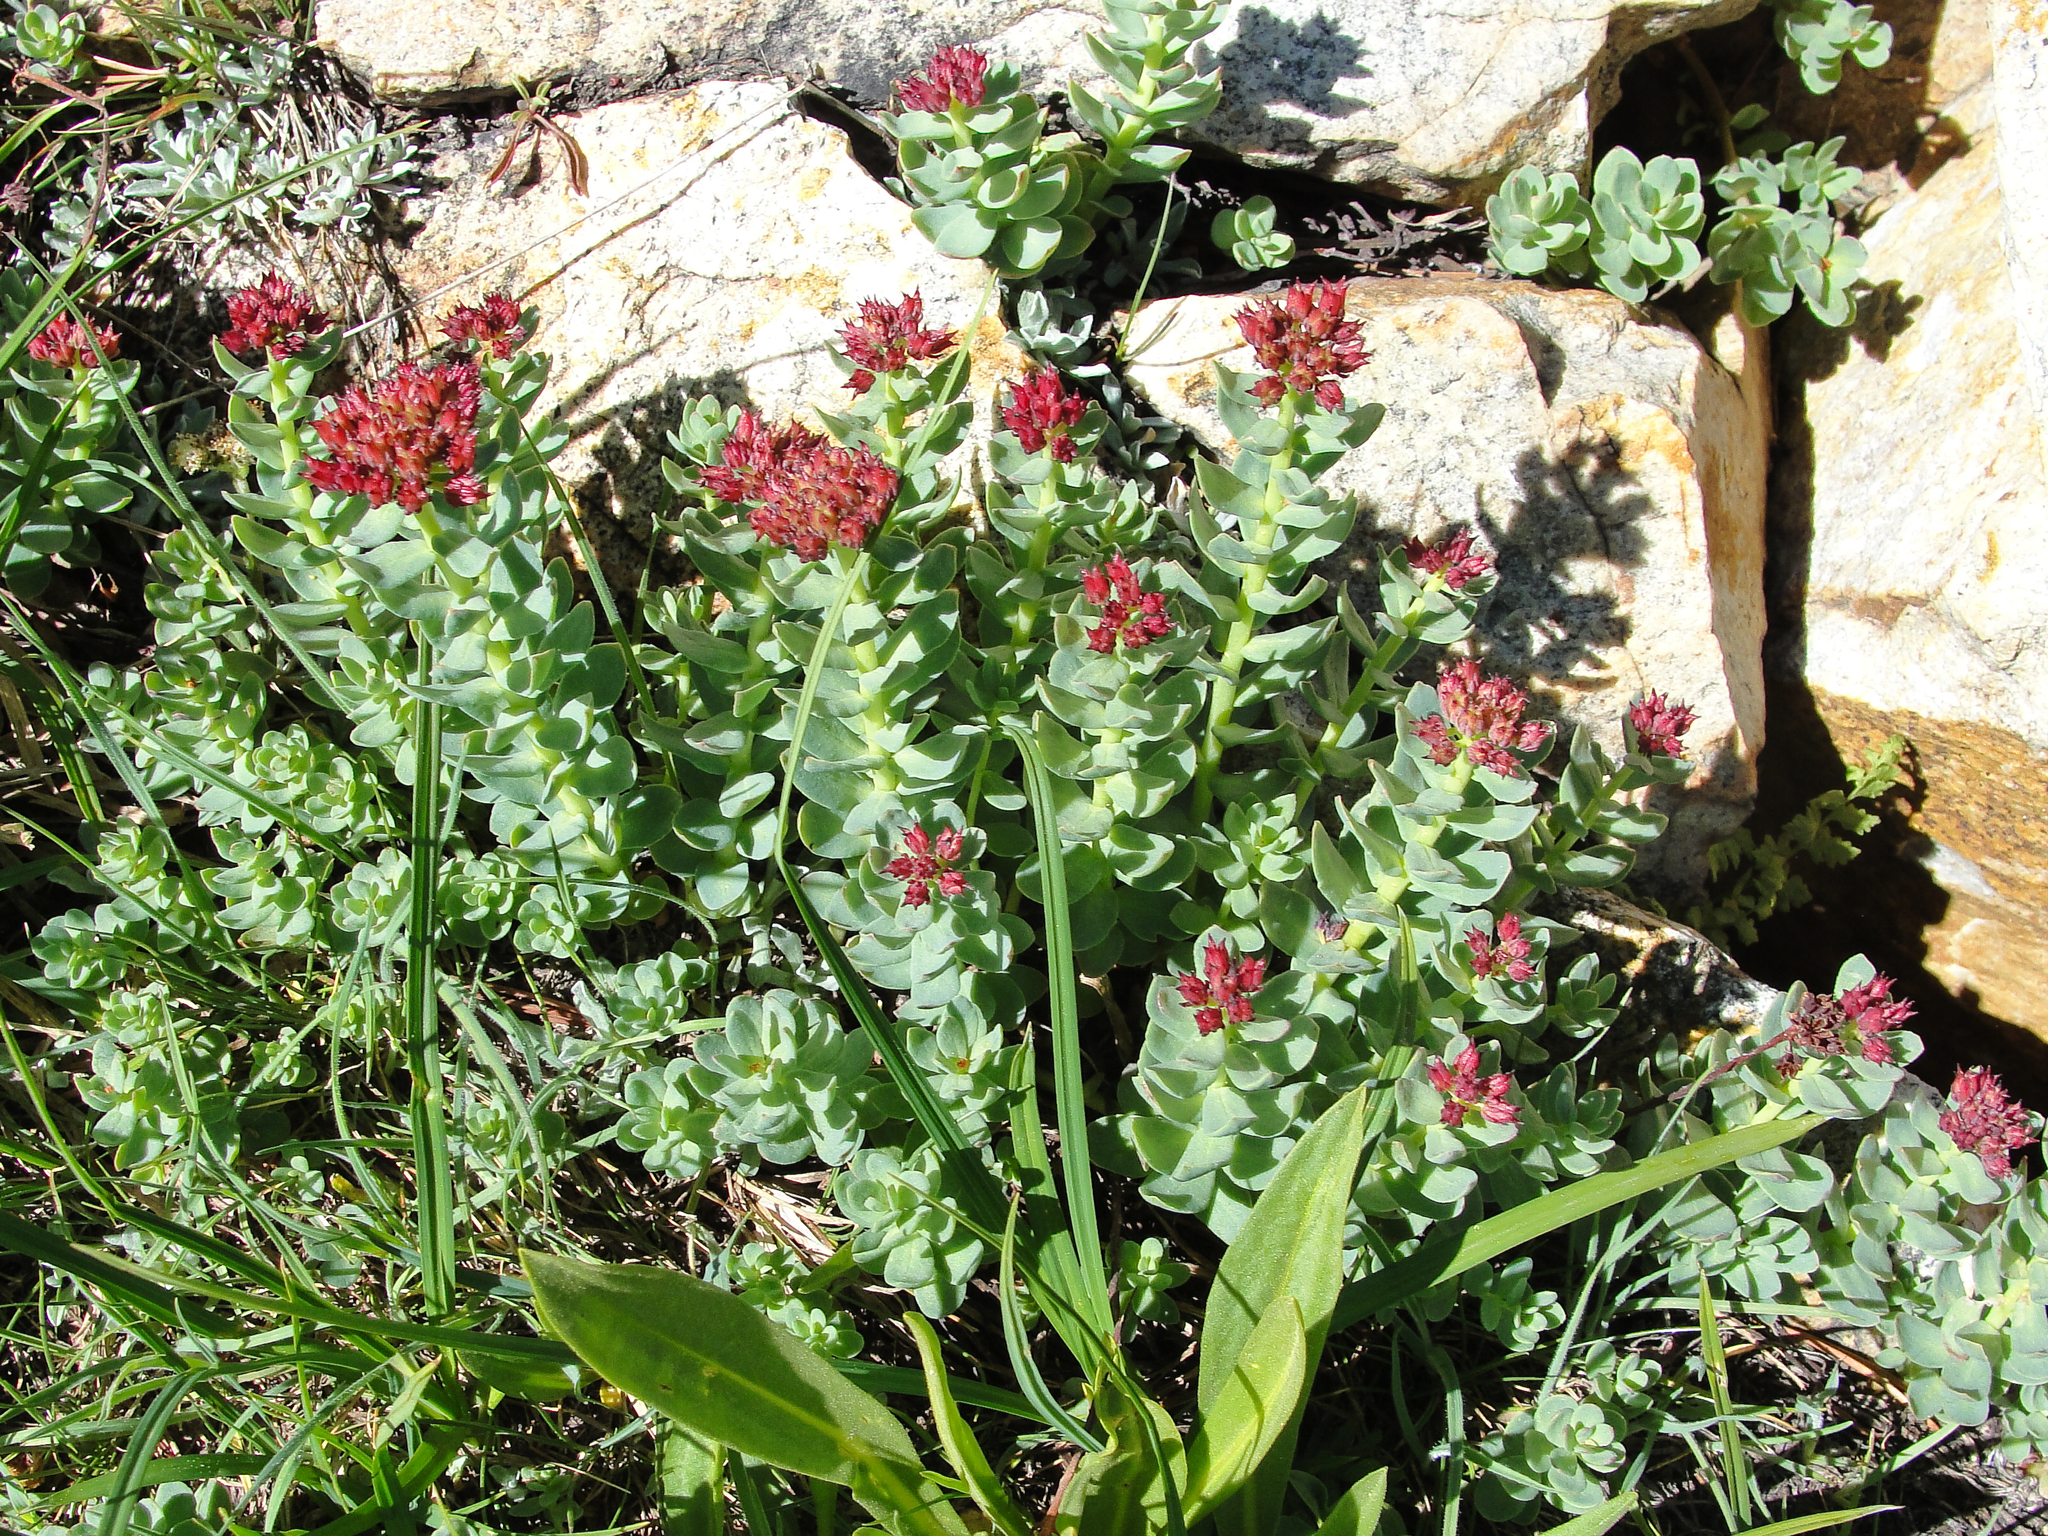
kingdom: Plantae
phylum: Tracheophyta
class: Magnoliopsida
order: Saxifragales
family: Crassulaceae
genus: Rhodiola
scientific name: Rhodiola integrifolia
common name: Western roseroot
